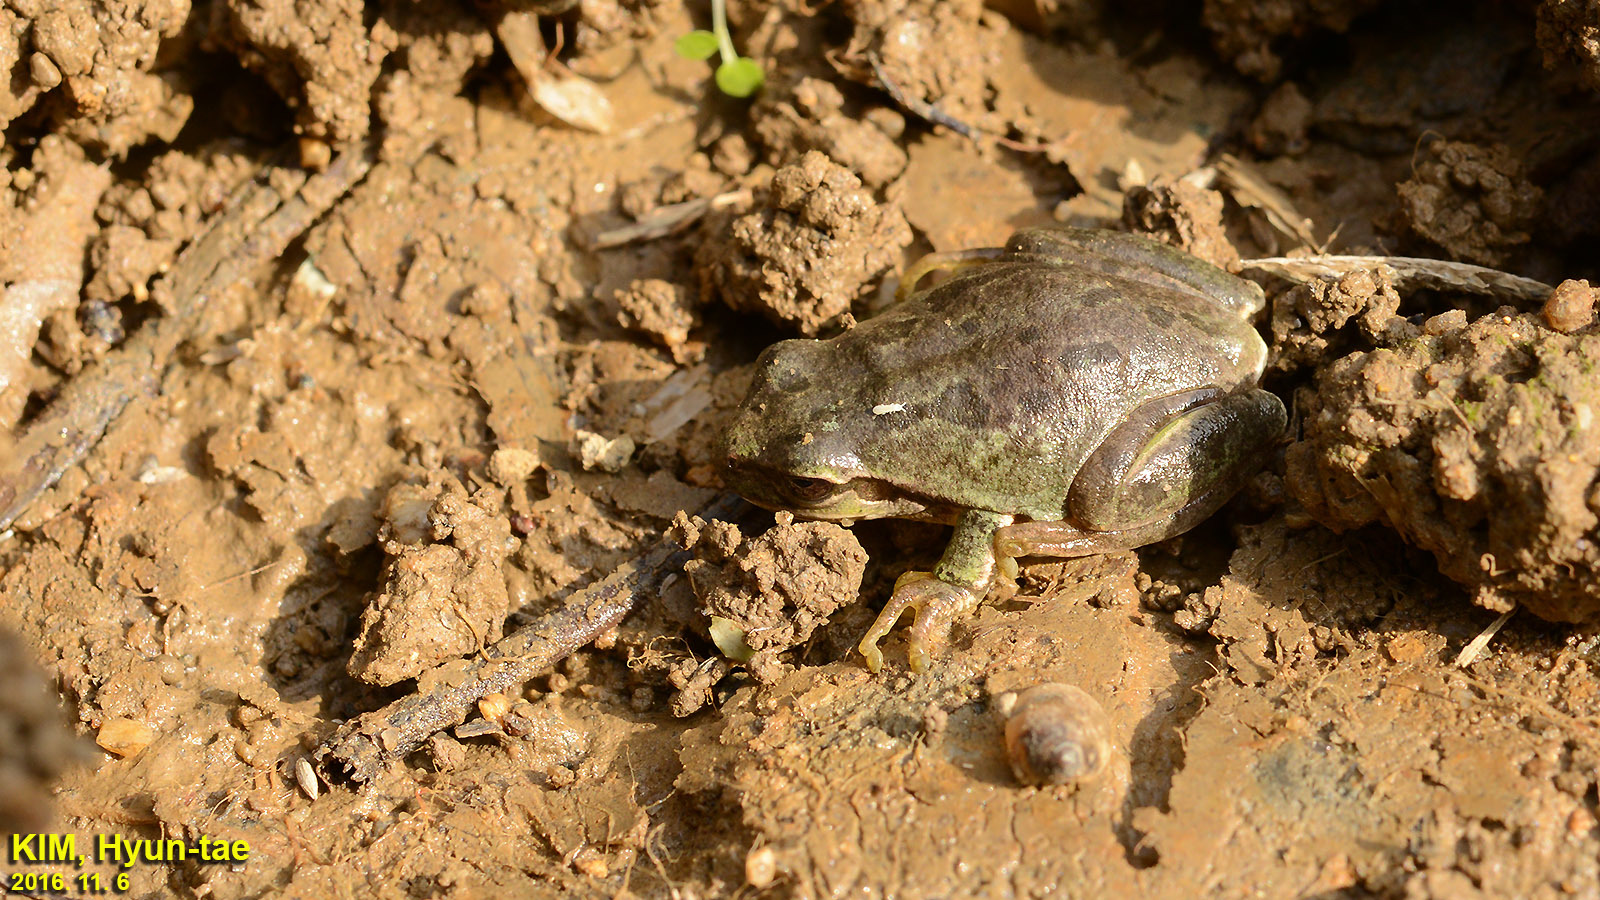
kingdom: Animalia
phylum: Chordata
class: Amphibia
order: Anura
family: Hylidae
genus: Dryophytes
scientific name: Dryophytes immaculatus
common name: North china treefrog
